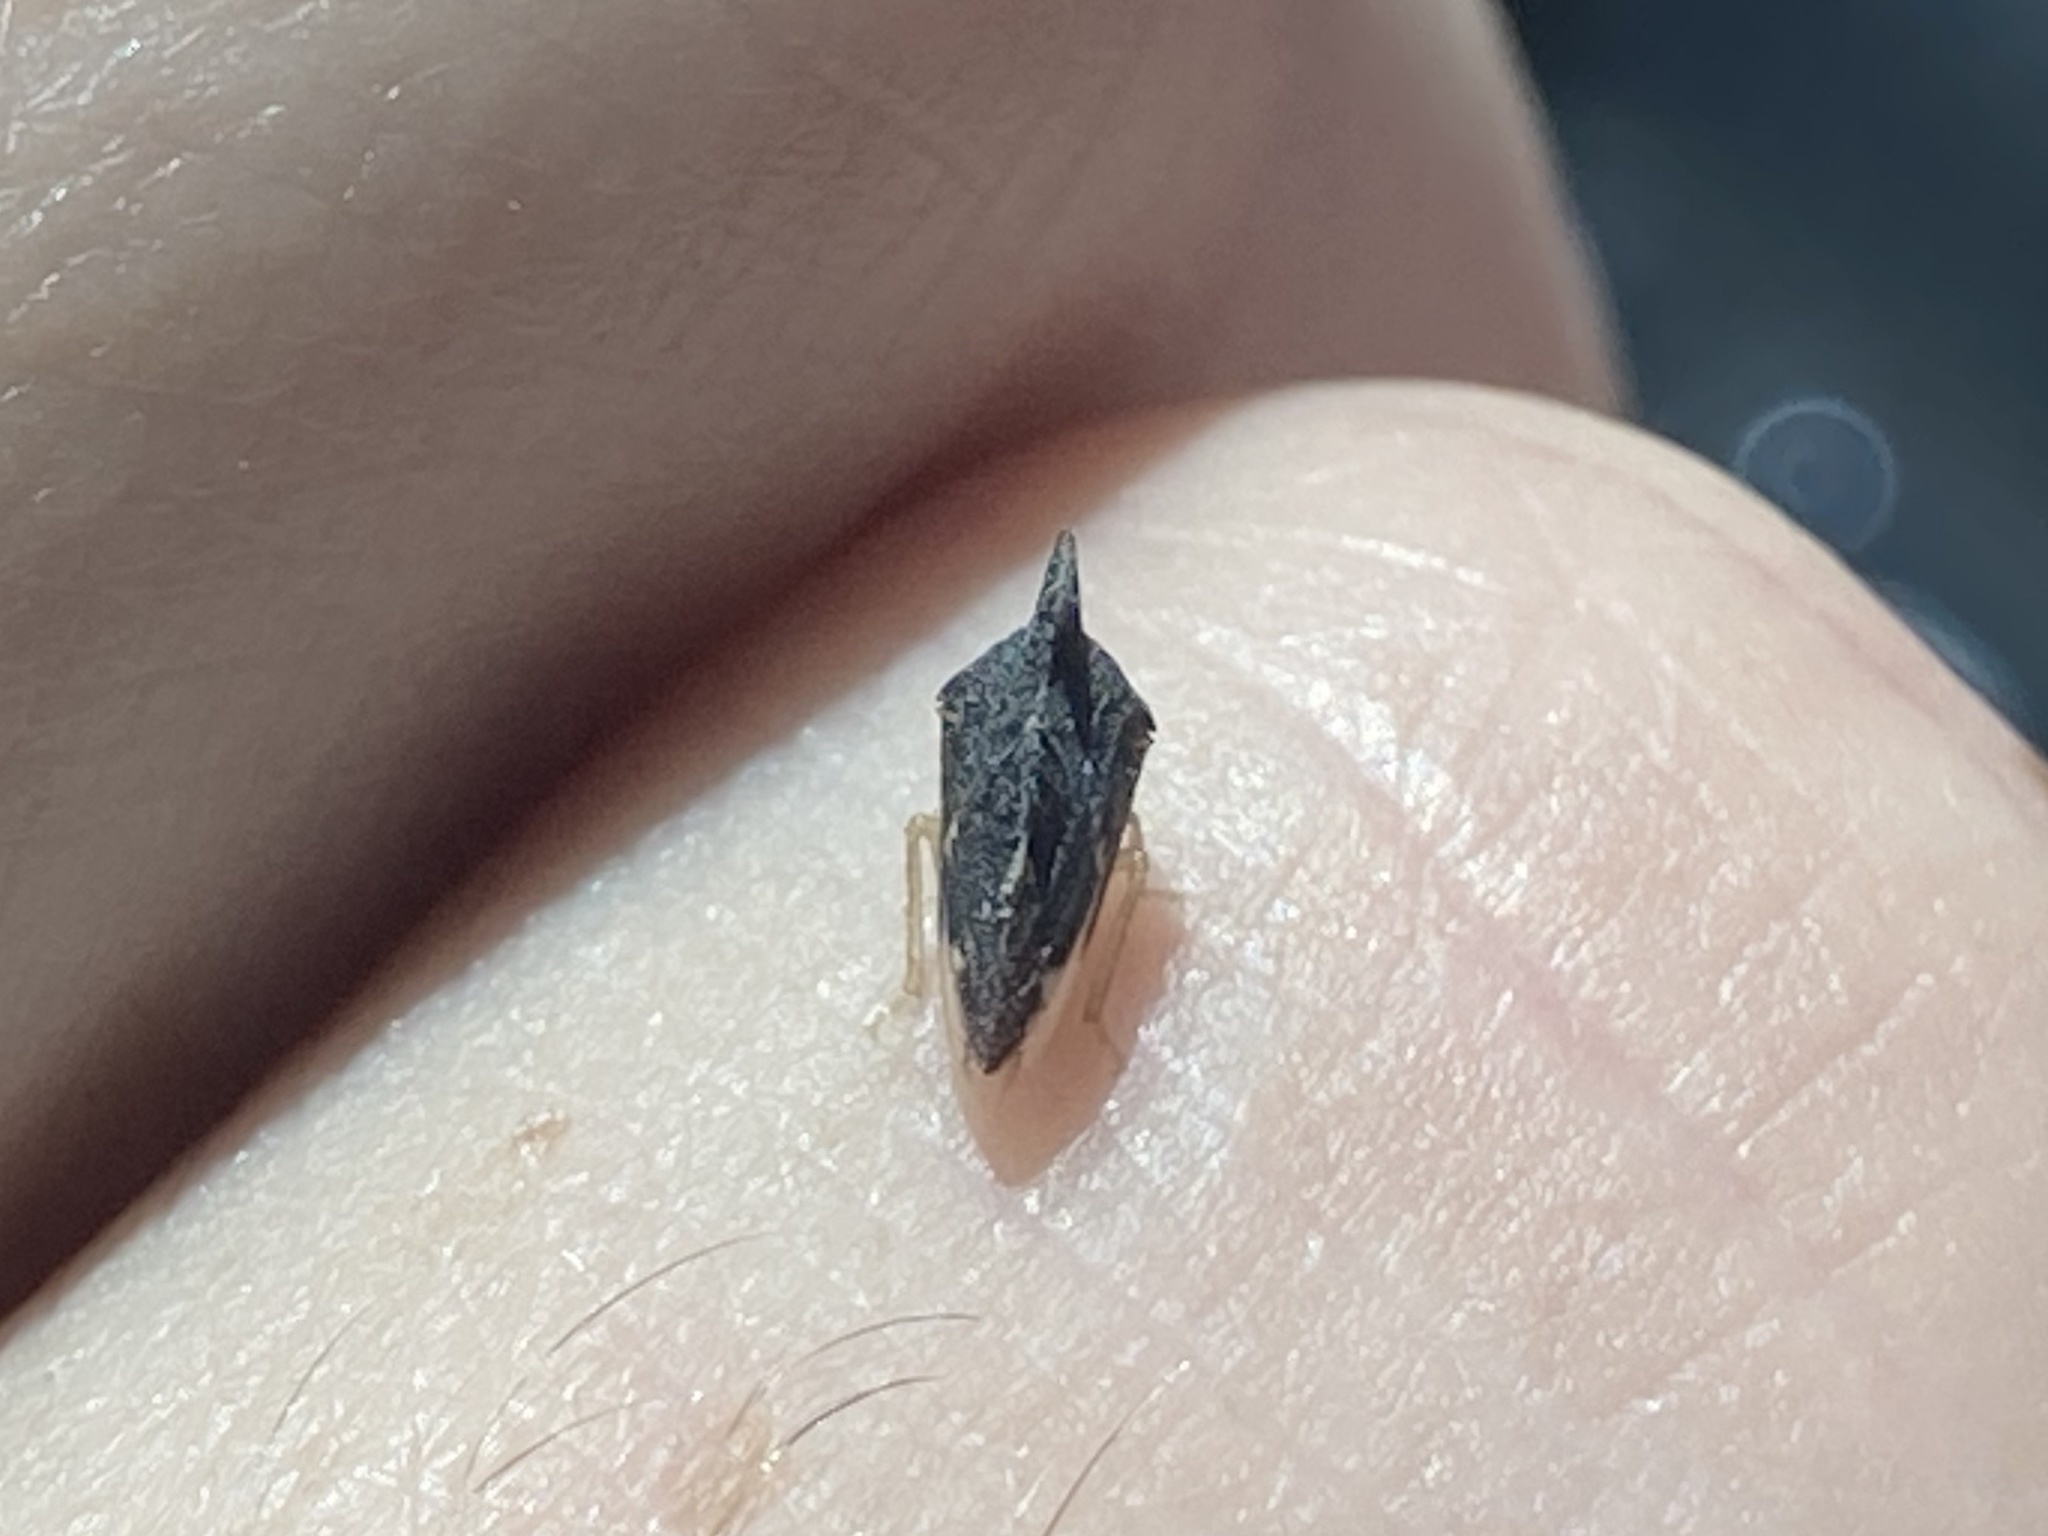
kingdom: Animalia
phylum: Arthropoda
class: Insecta
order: Hemiptera
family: Membracidae
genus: Entylia
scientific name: Entylia carinata
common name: Keeled treehopper
